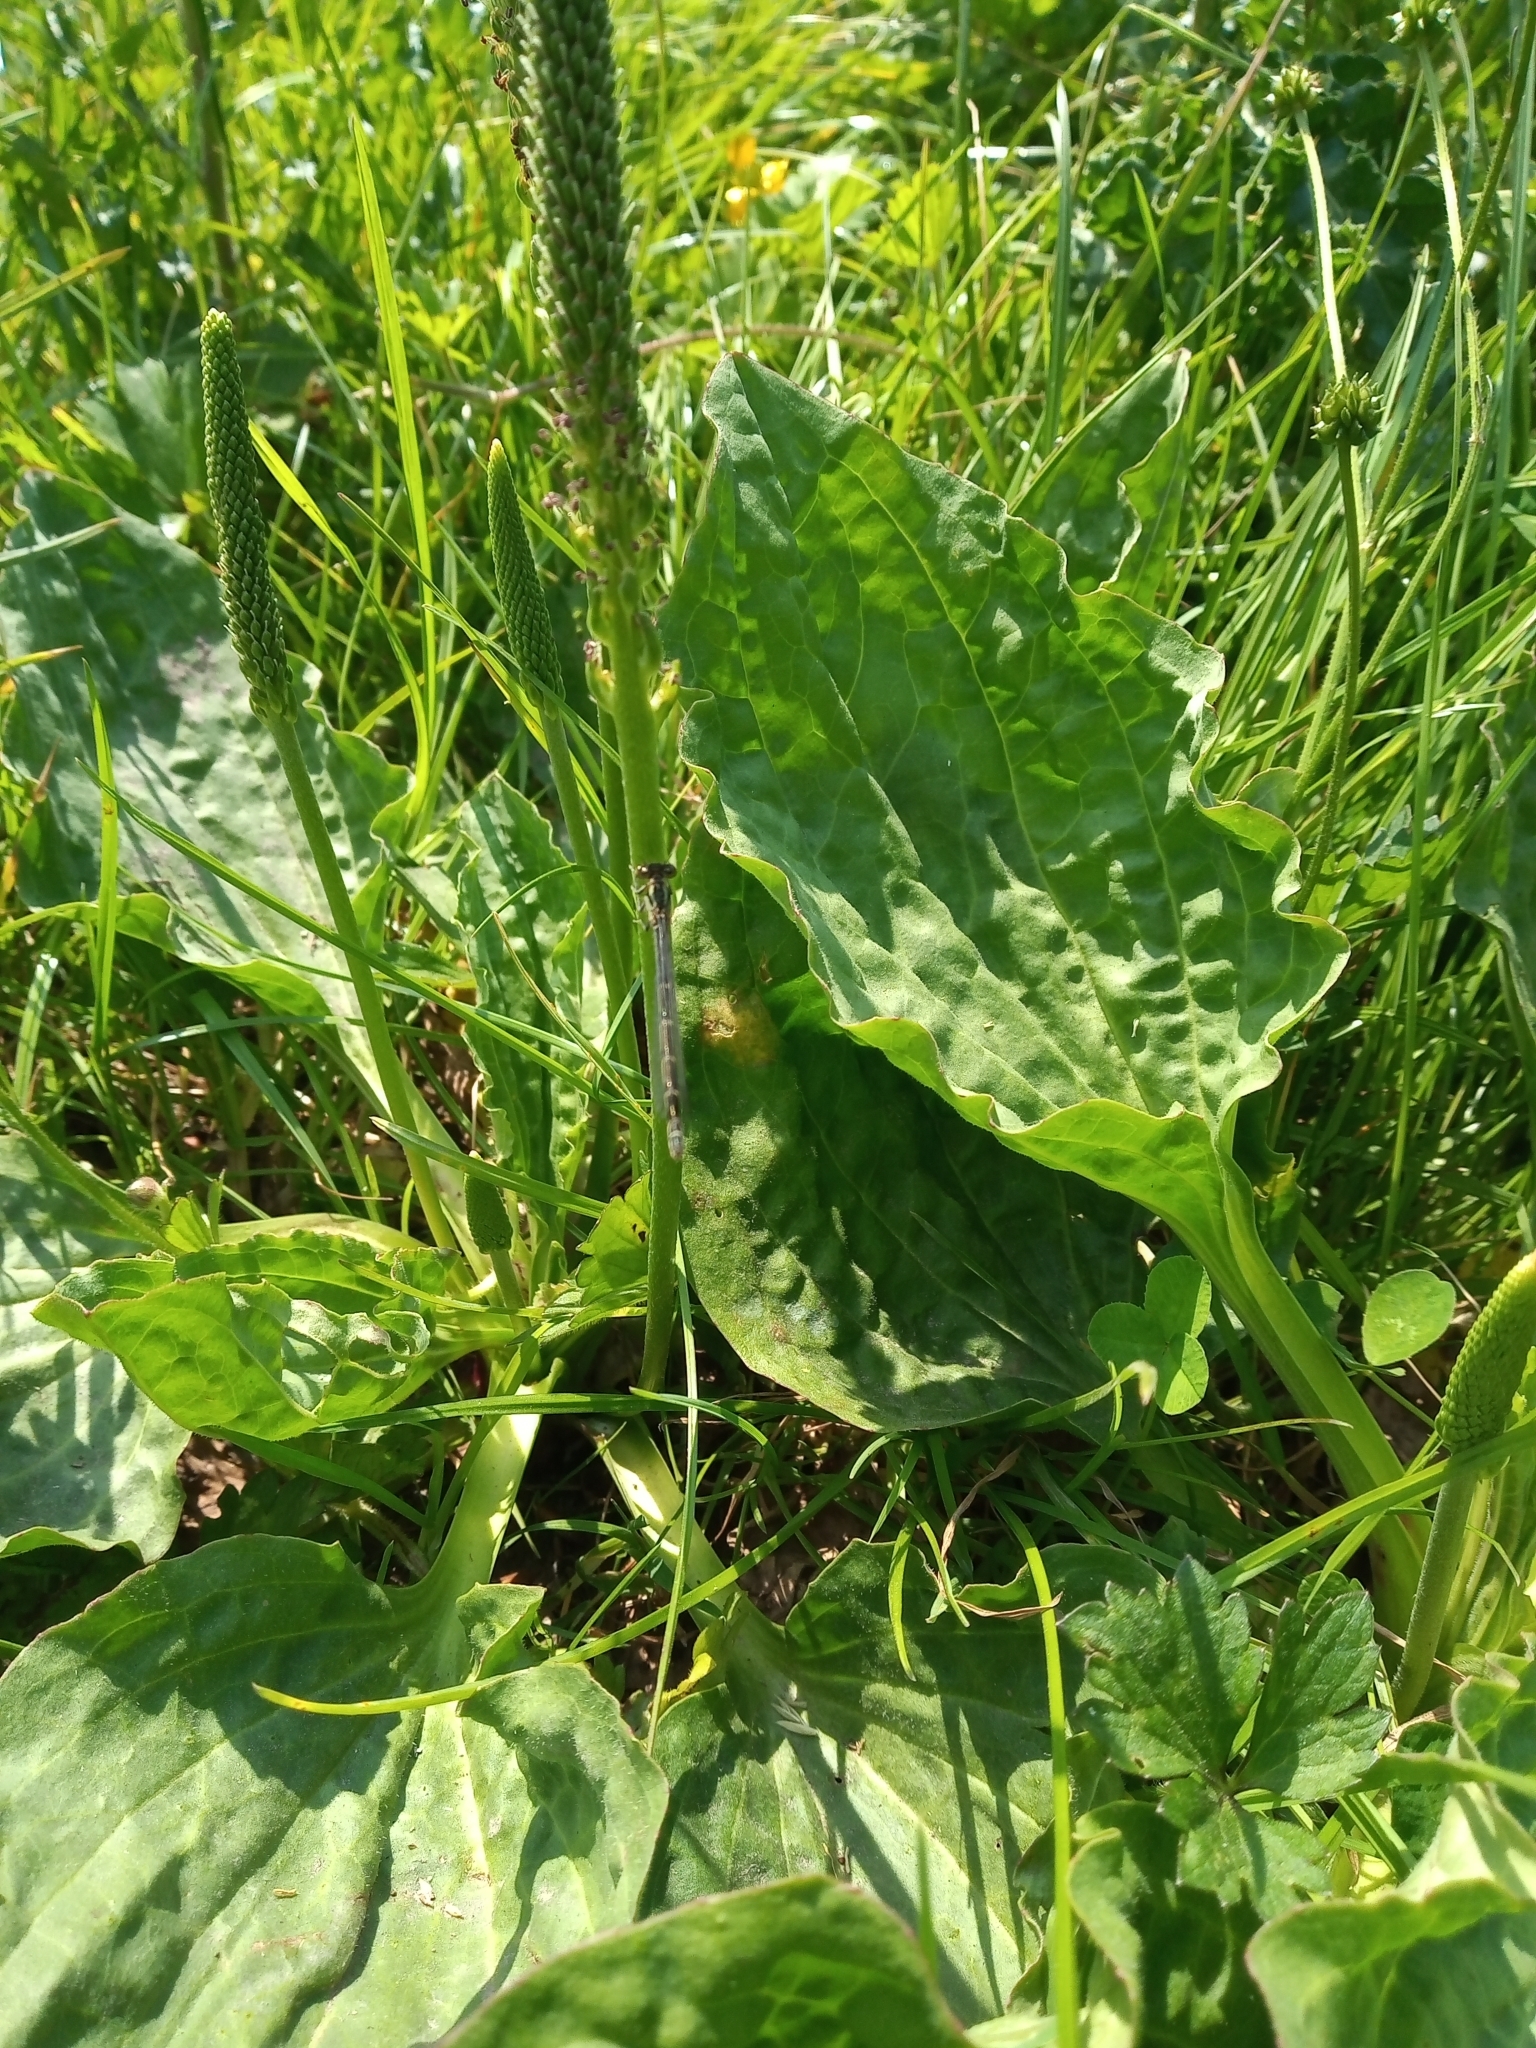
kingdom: Plantae
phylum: Tracheophyta
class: Magnoliopsida
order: Lamiales
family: Plantaginaceae
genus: Plantago
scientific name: Plantago major
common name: Common plantain
